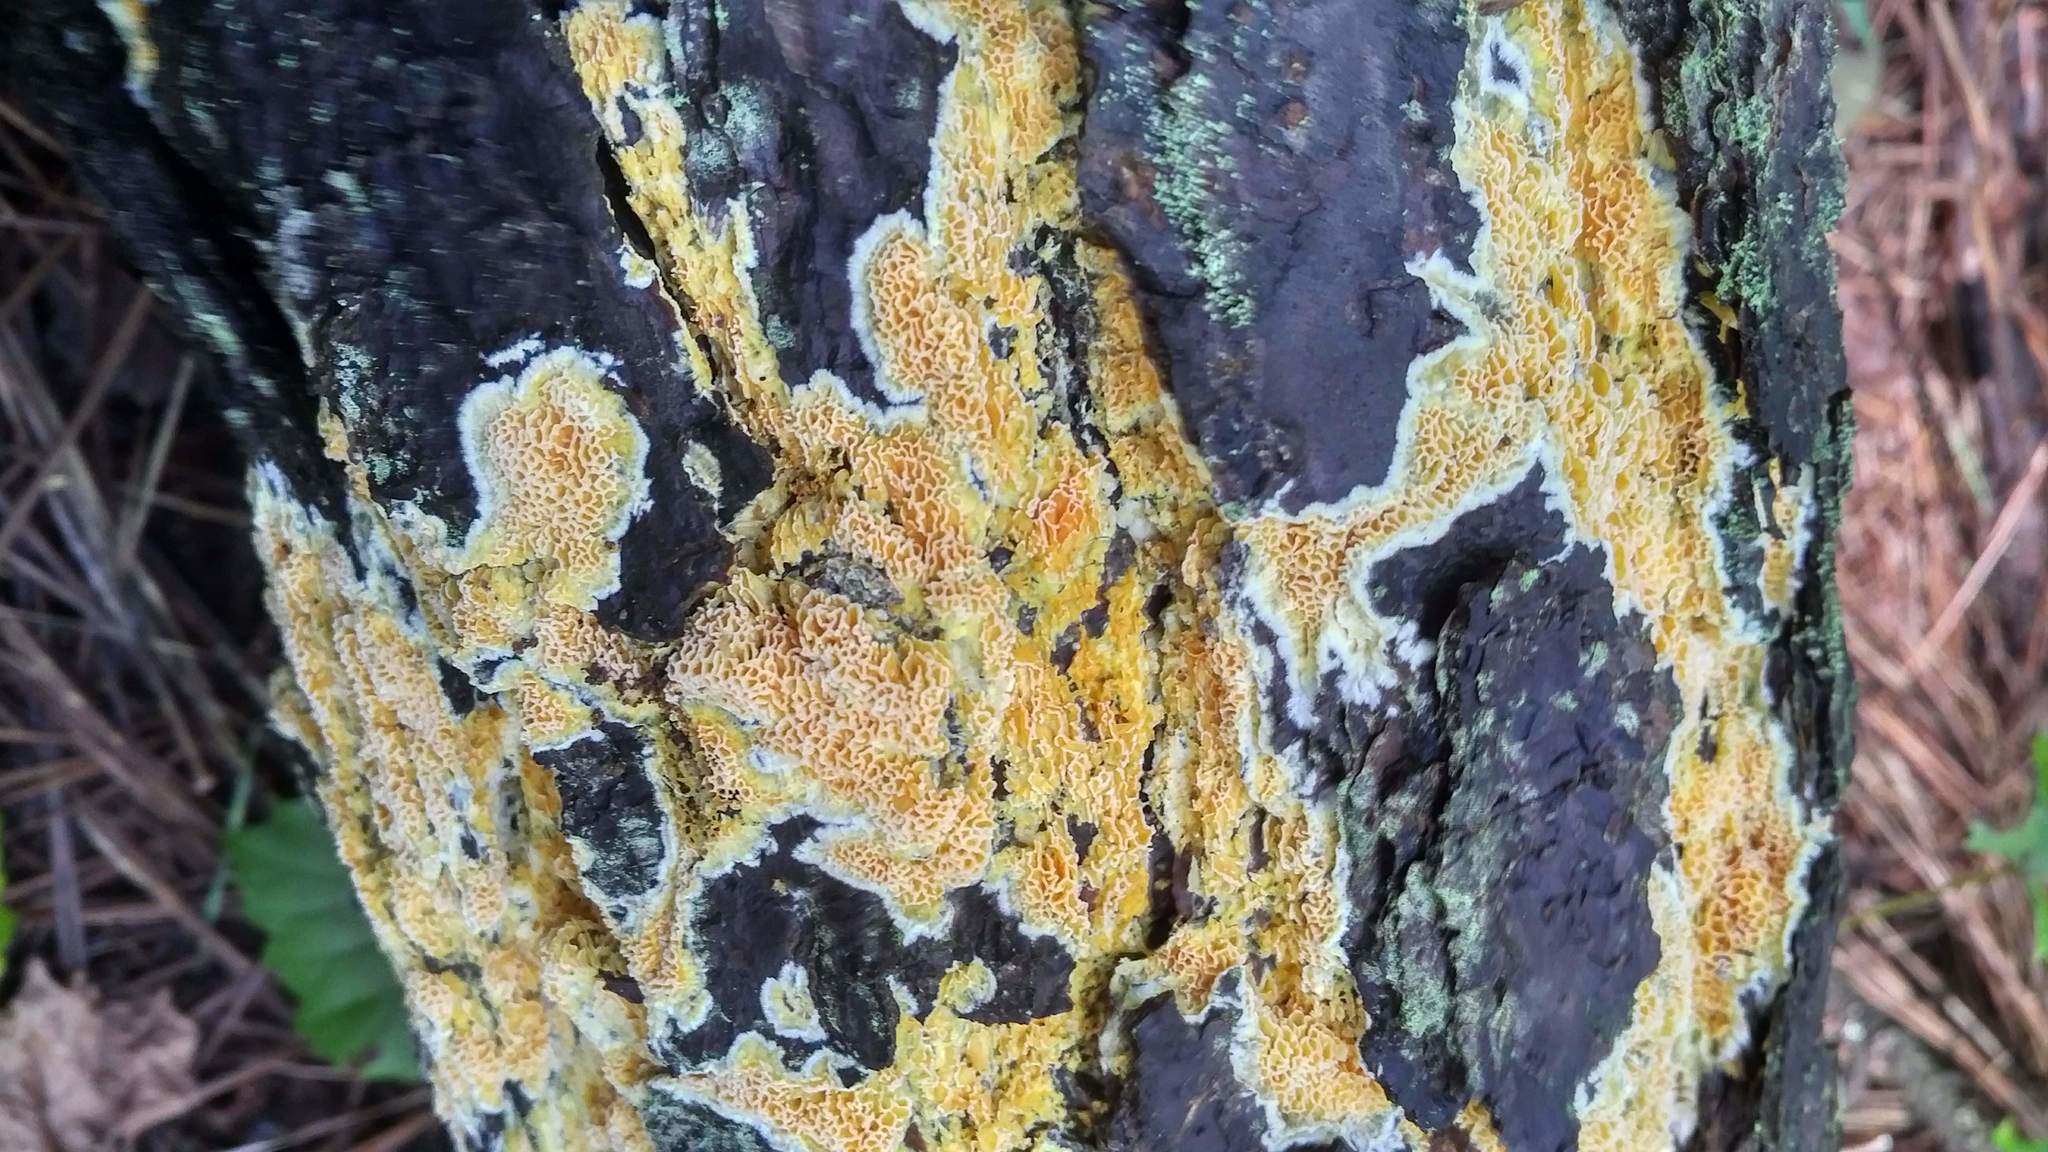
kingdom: Fungi
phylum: Basidiomycota
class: Agaricomycetes
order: Polyporales
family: Fibroporiaceae
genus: Fibroporia
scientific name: Fibroporia radiculosa
